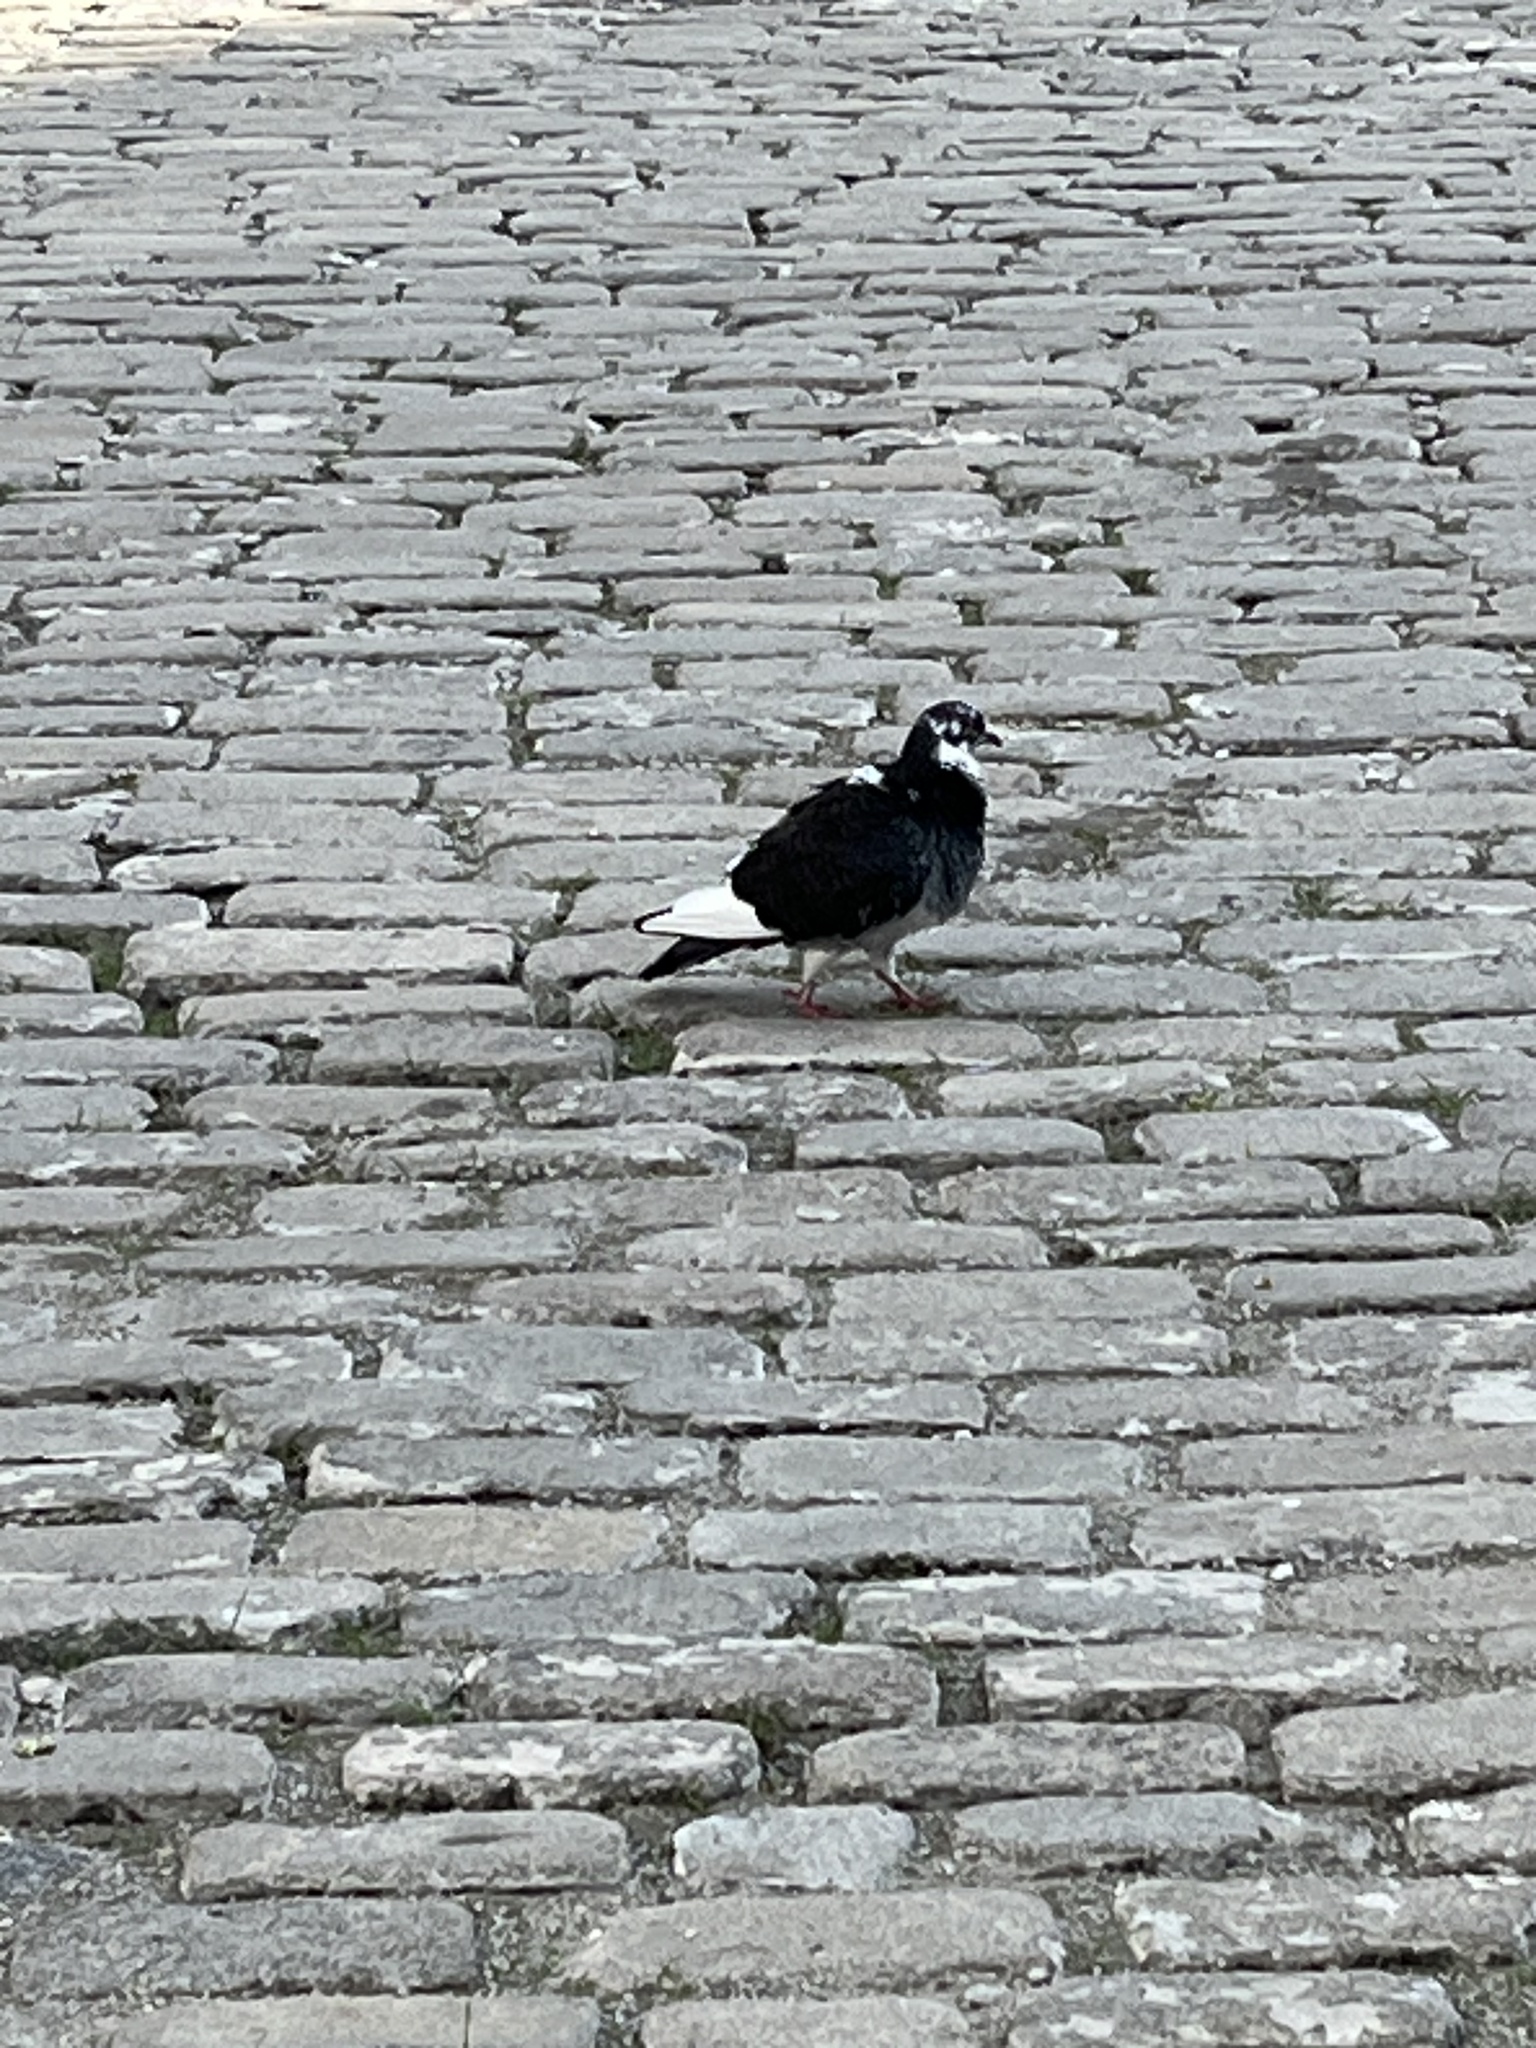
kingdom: Animalia
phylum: Chordata
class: Aves
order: Columbiformes
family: Columbidae
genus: Columba
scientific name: Columba livia
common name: Rock pigeon
